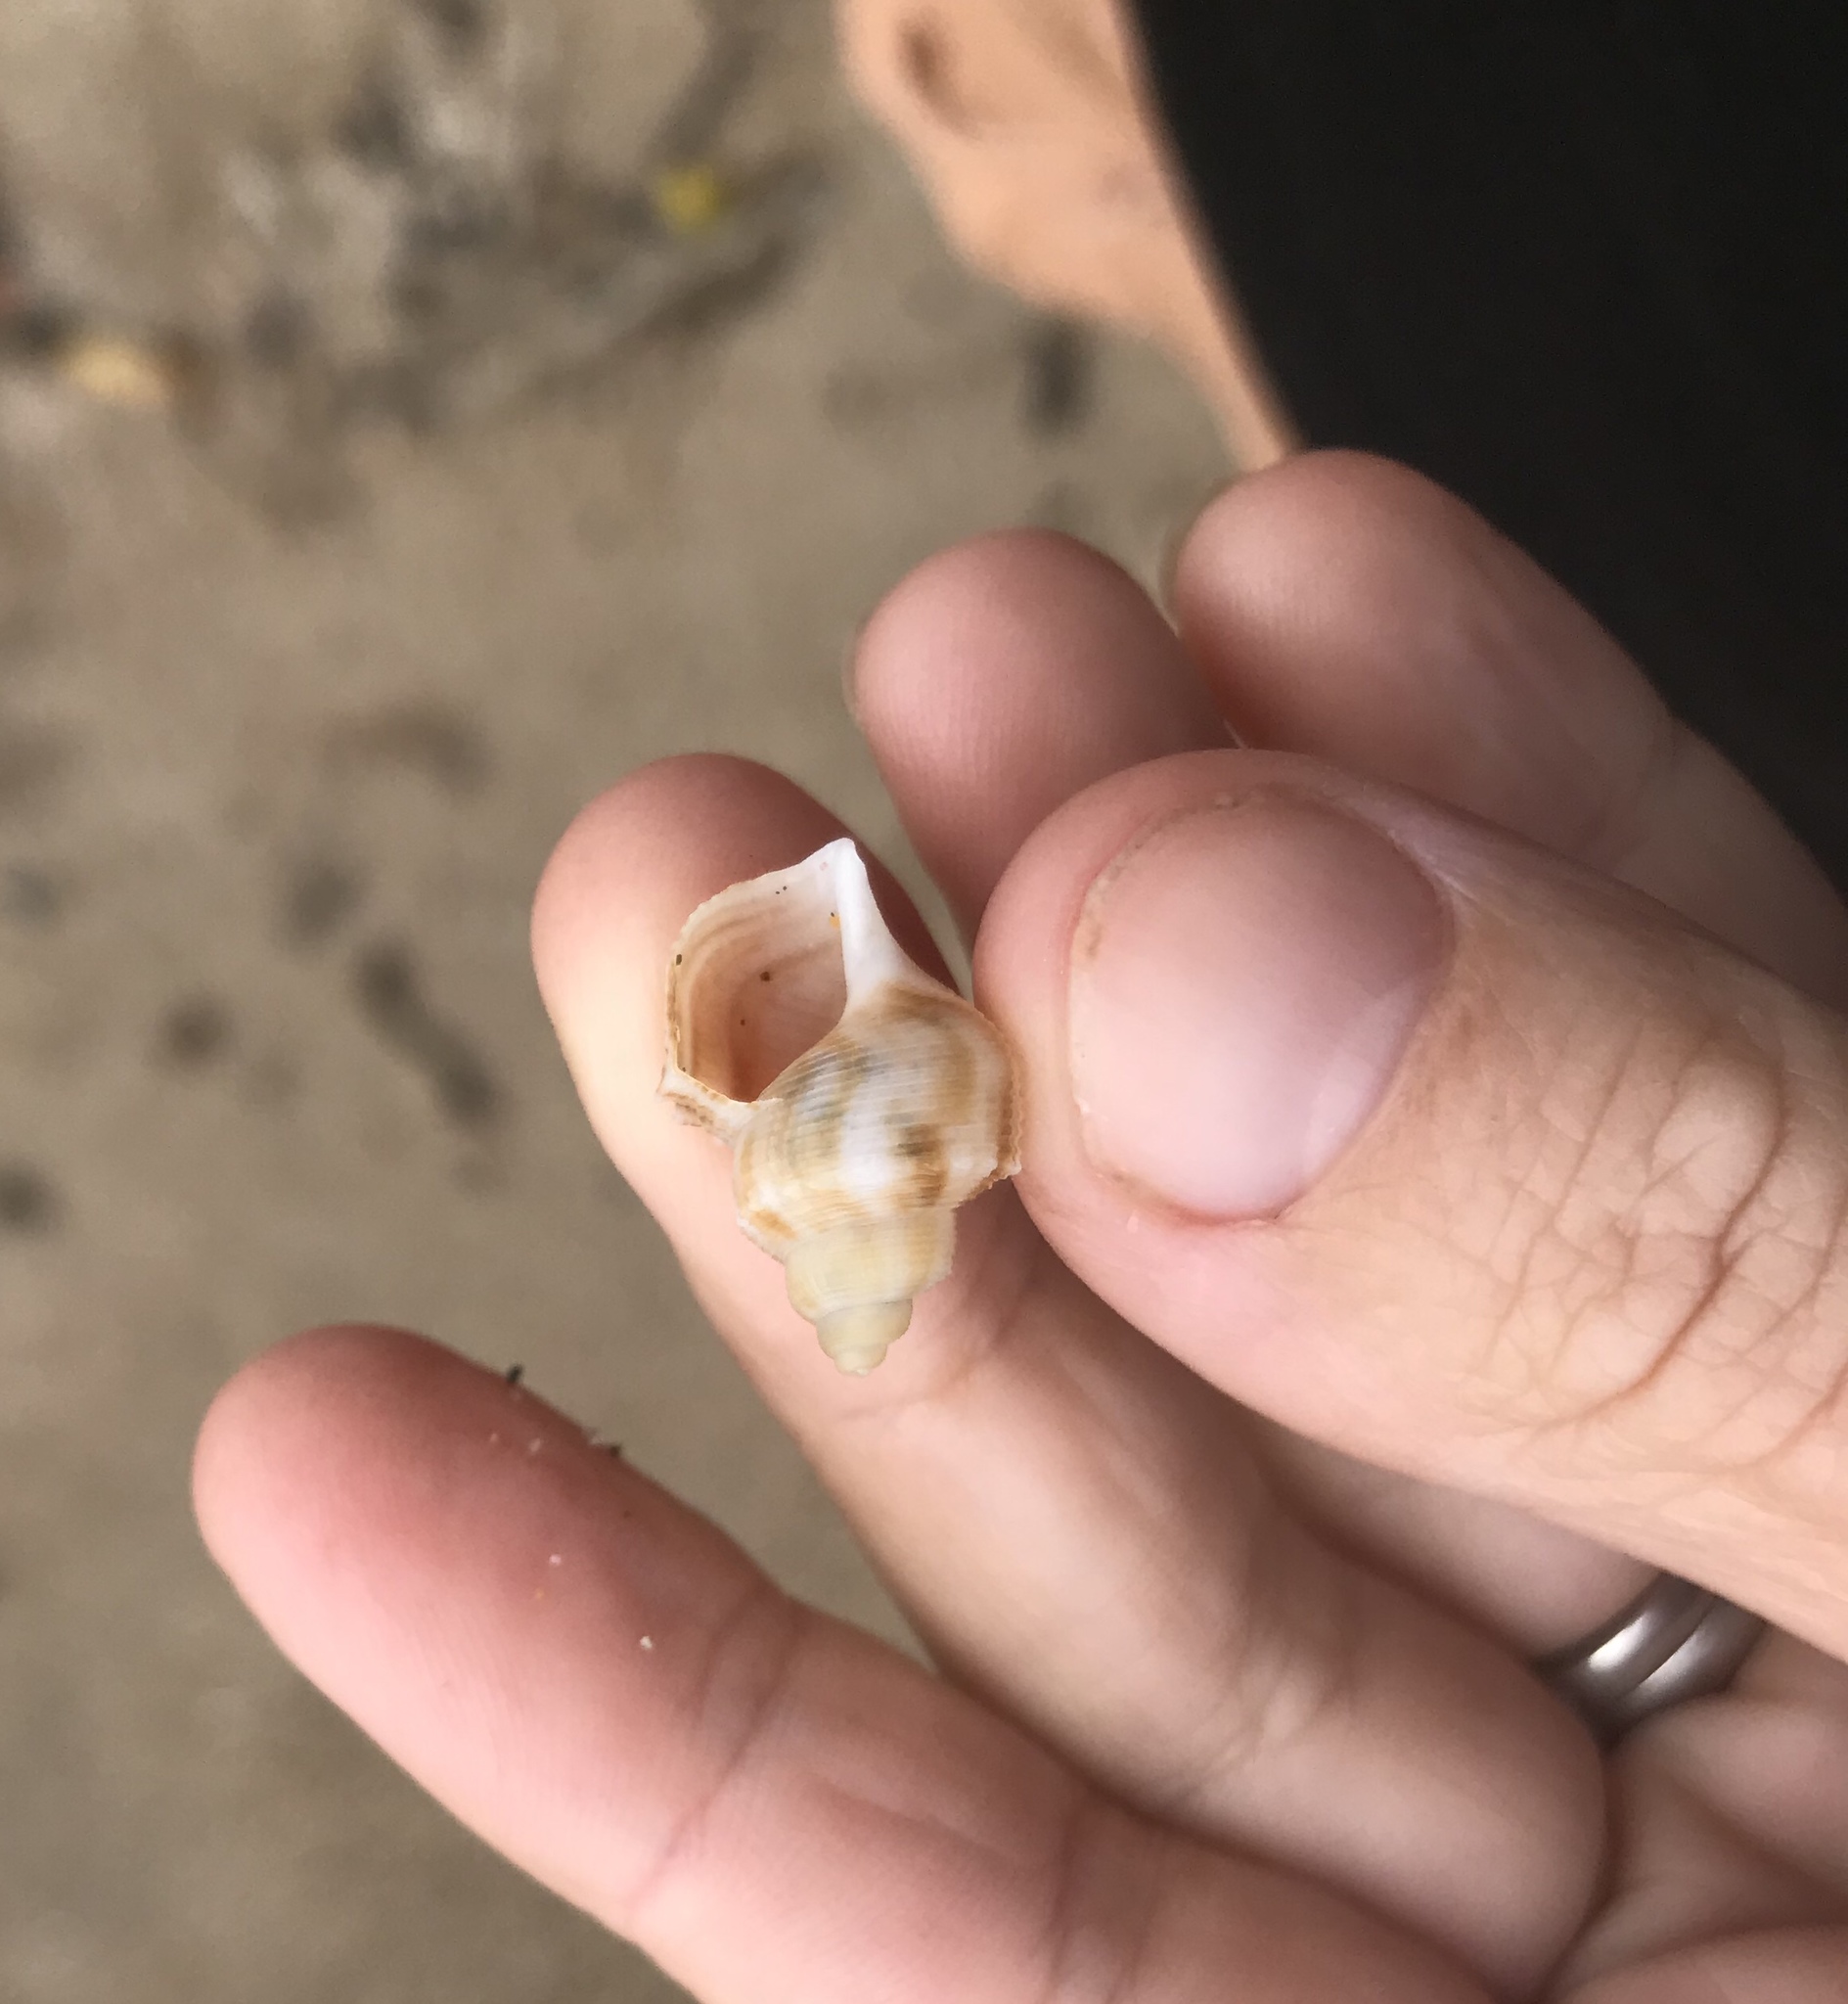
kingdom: Animalia
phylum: Mollusca
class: Gastropoda
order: Littorinimorpha
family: Struthiolariidae
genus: Struthiolaria
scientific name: Struthiolaria papulosa
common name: Large ostrich foot
